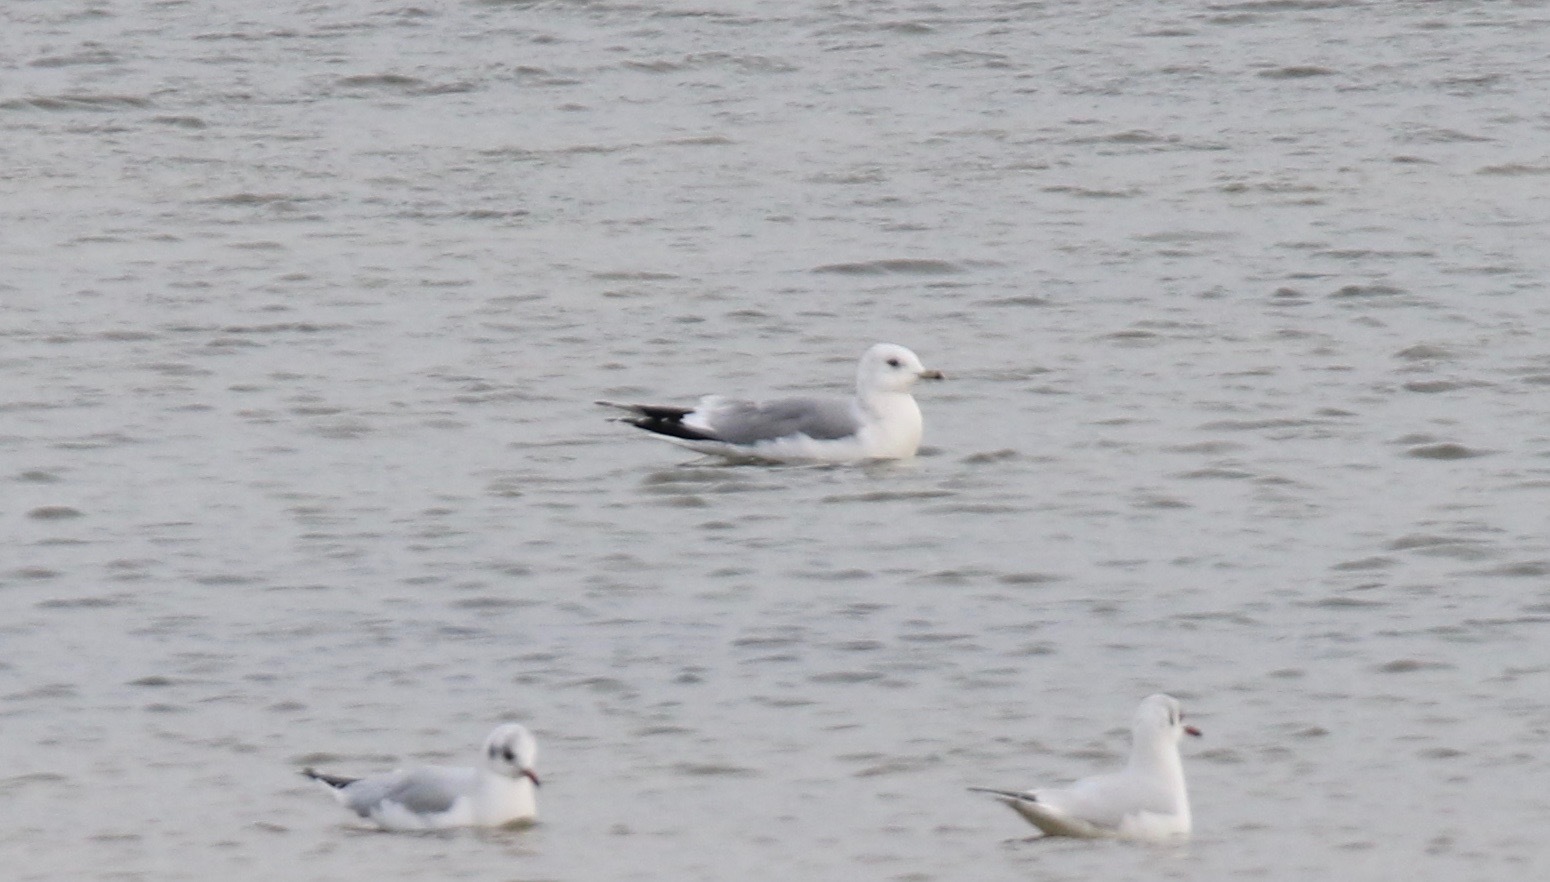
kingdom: Animalia
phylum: Chordata
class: Aves
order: Charadriiformes
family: Laridae
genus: Larus
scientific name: Larus canus
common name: Mew gull
